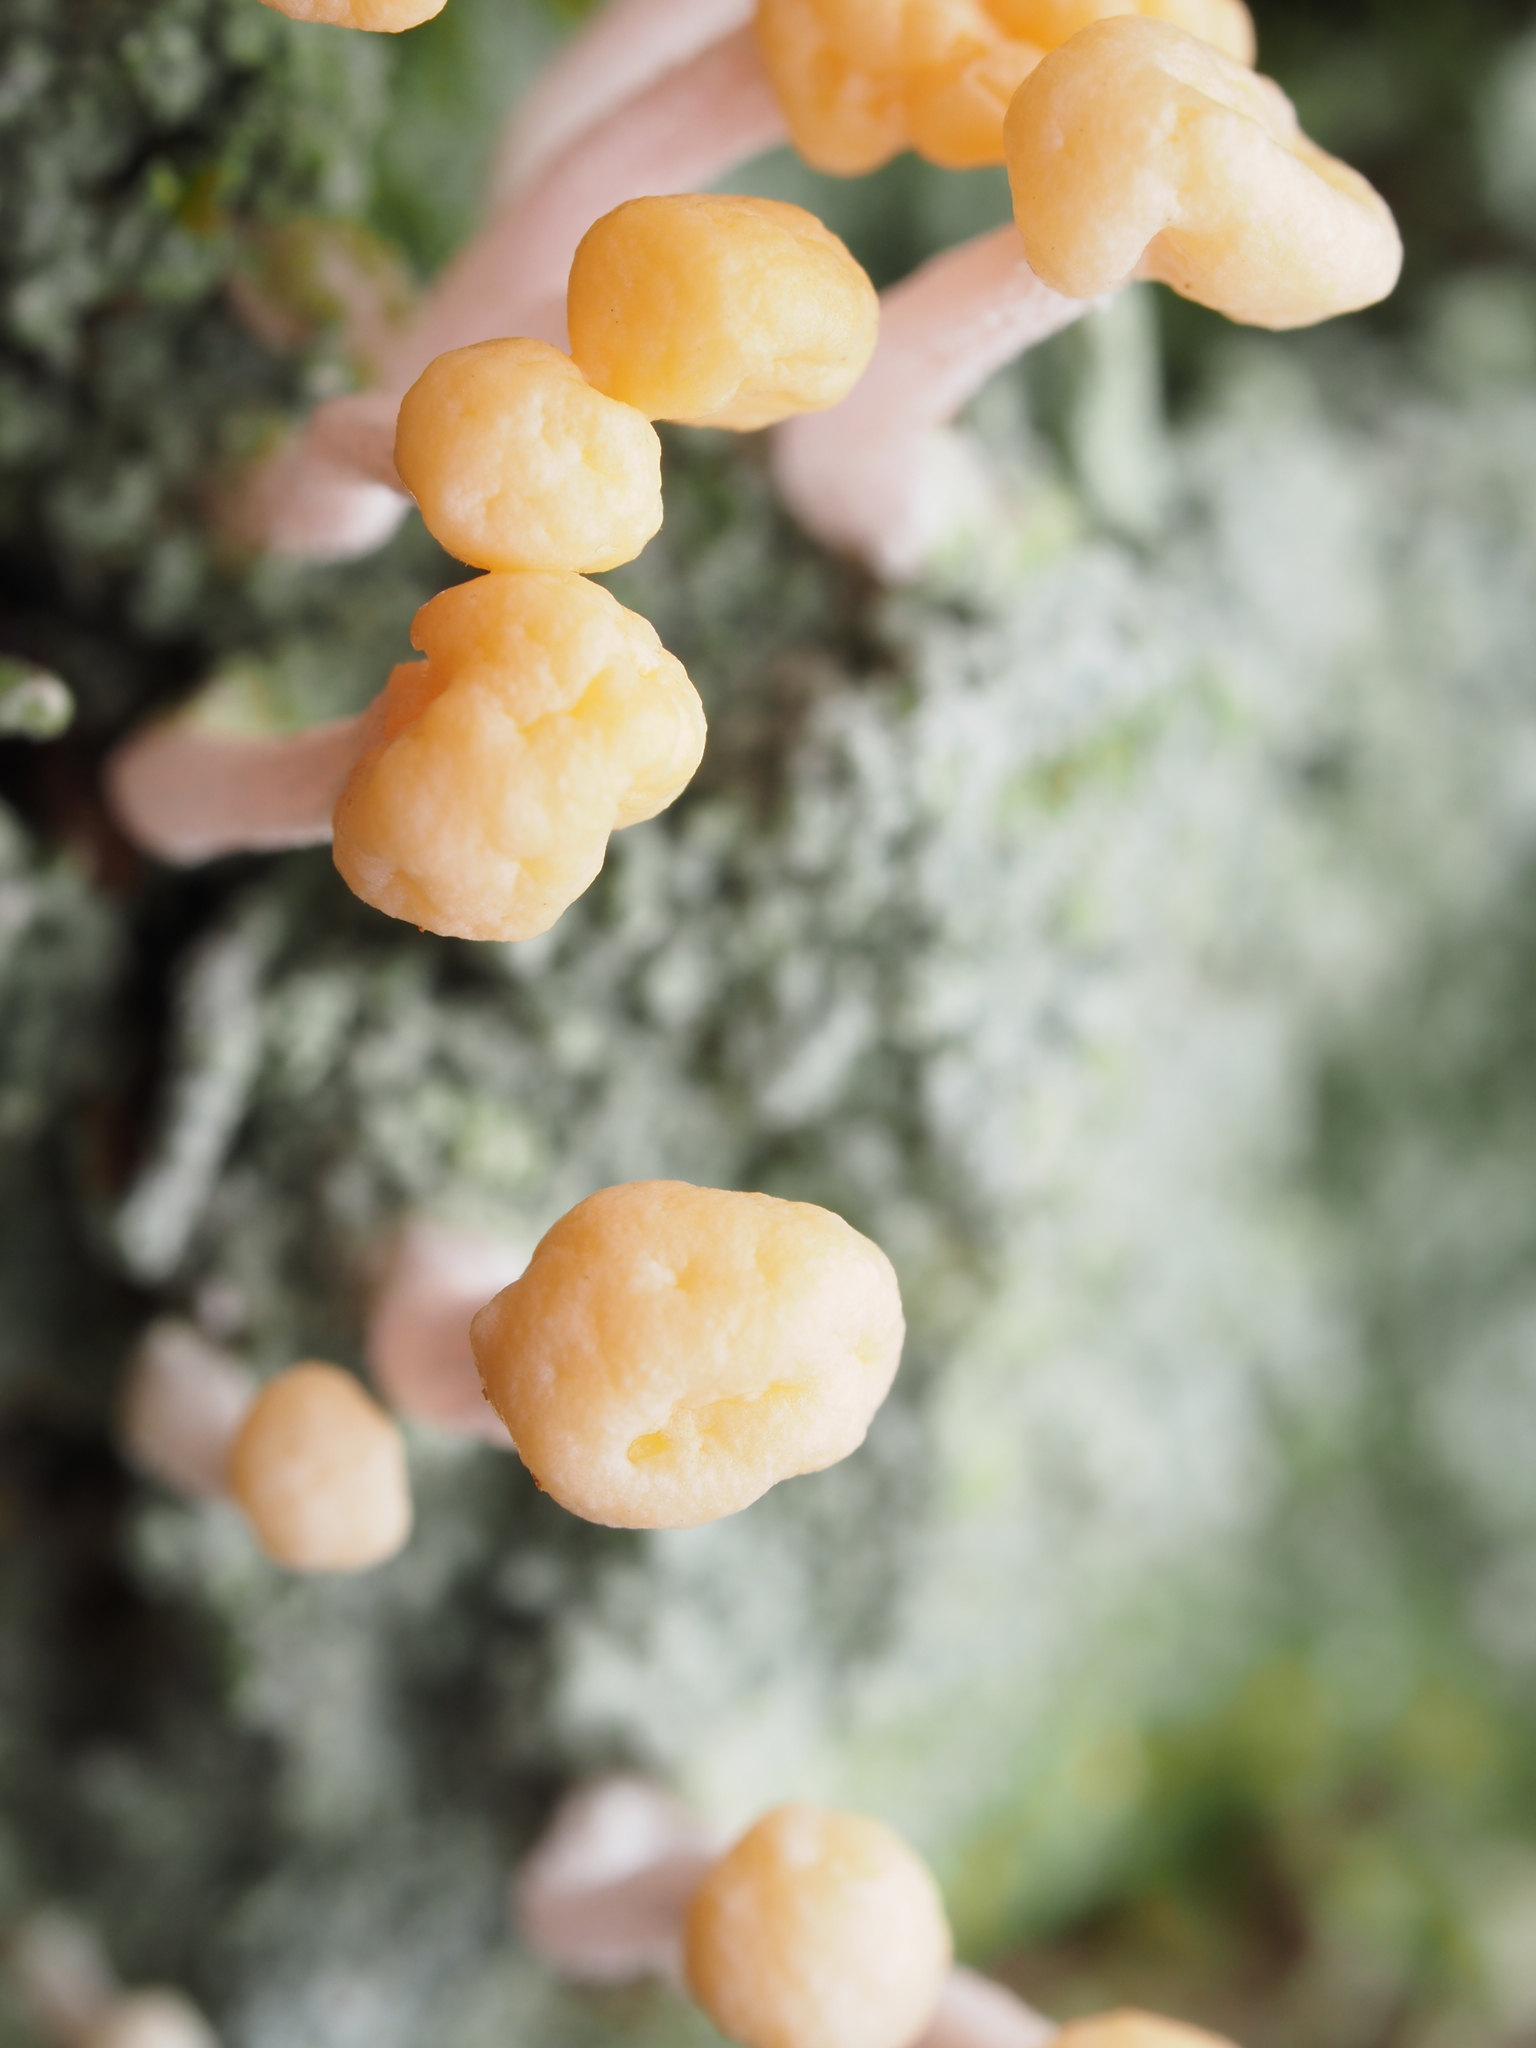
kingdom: Fungi
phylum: Ascomycota
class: Lecanoromycetes
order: Pertusariales
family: Icmadophilaceae
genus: Dibaeis
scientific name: Dibaeis arcuata
